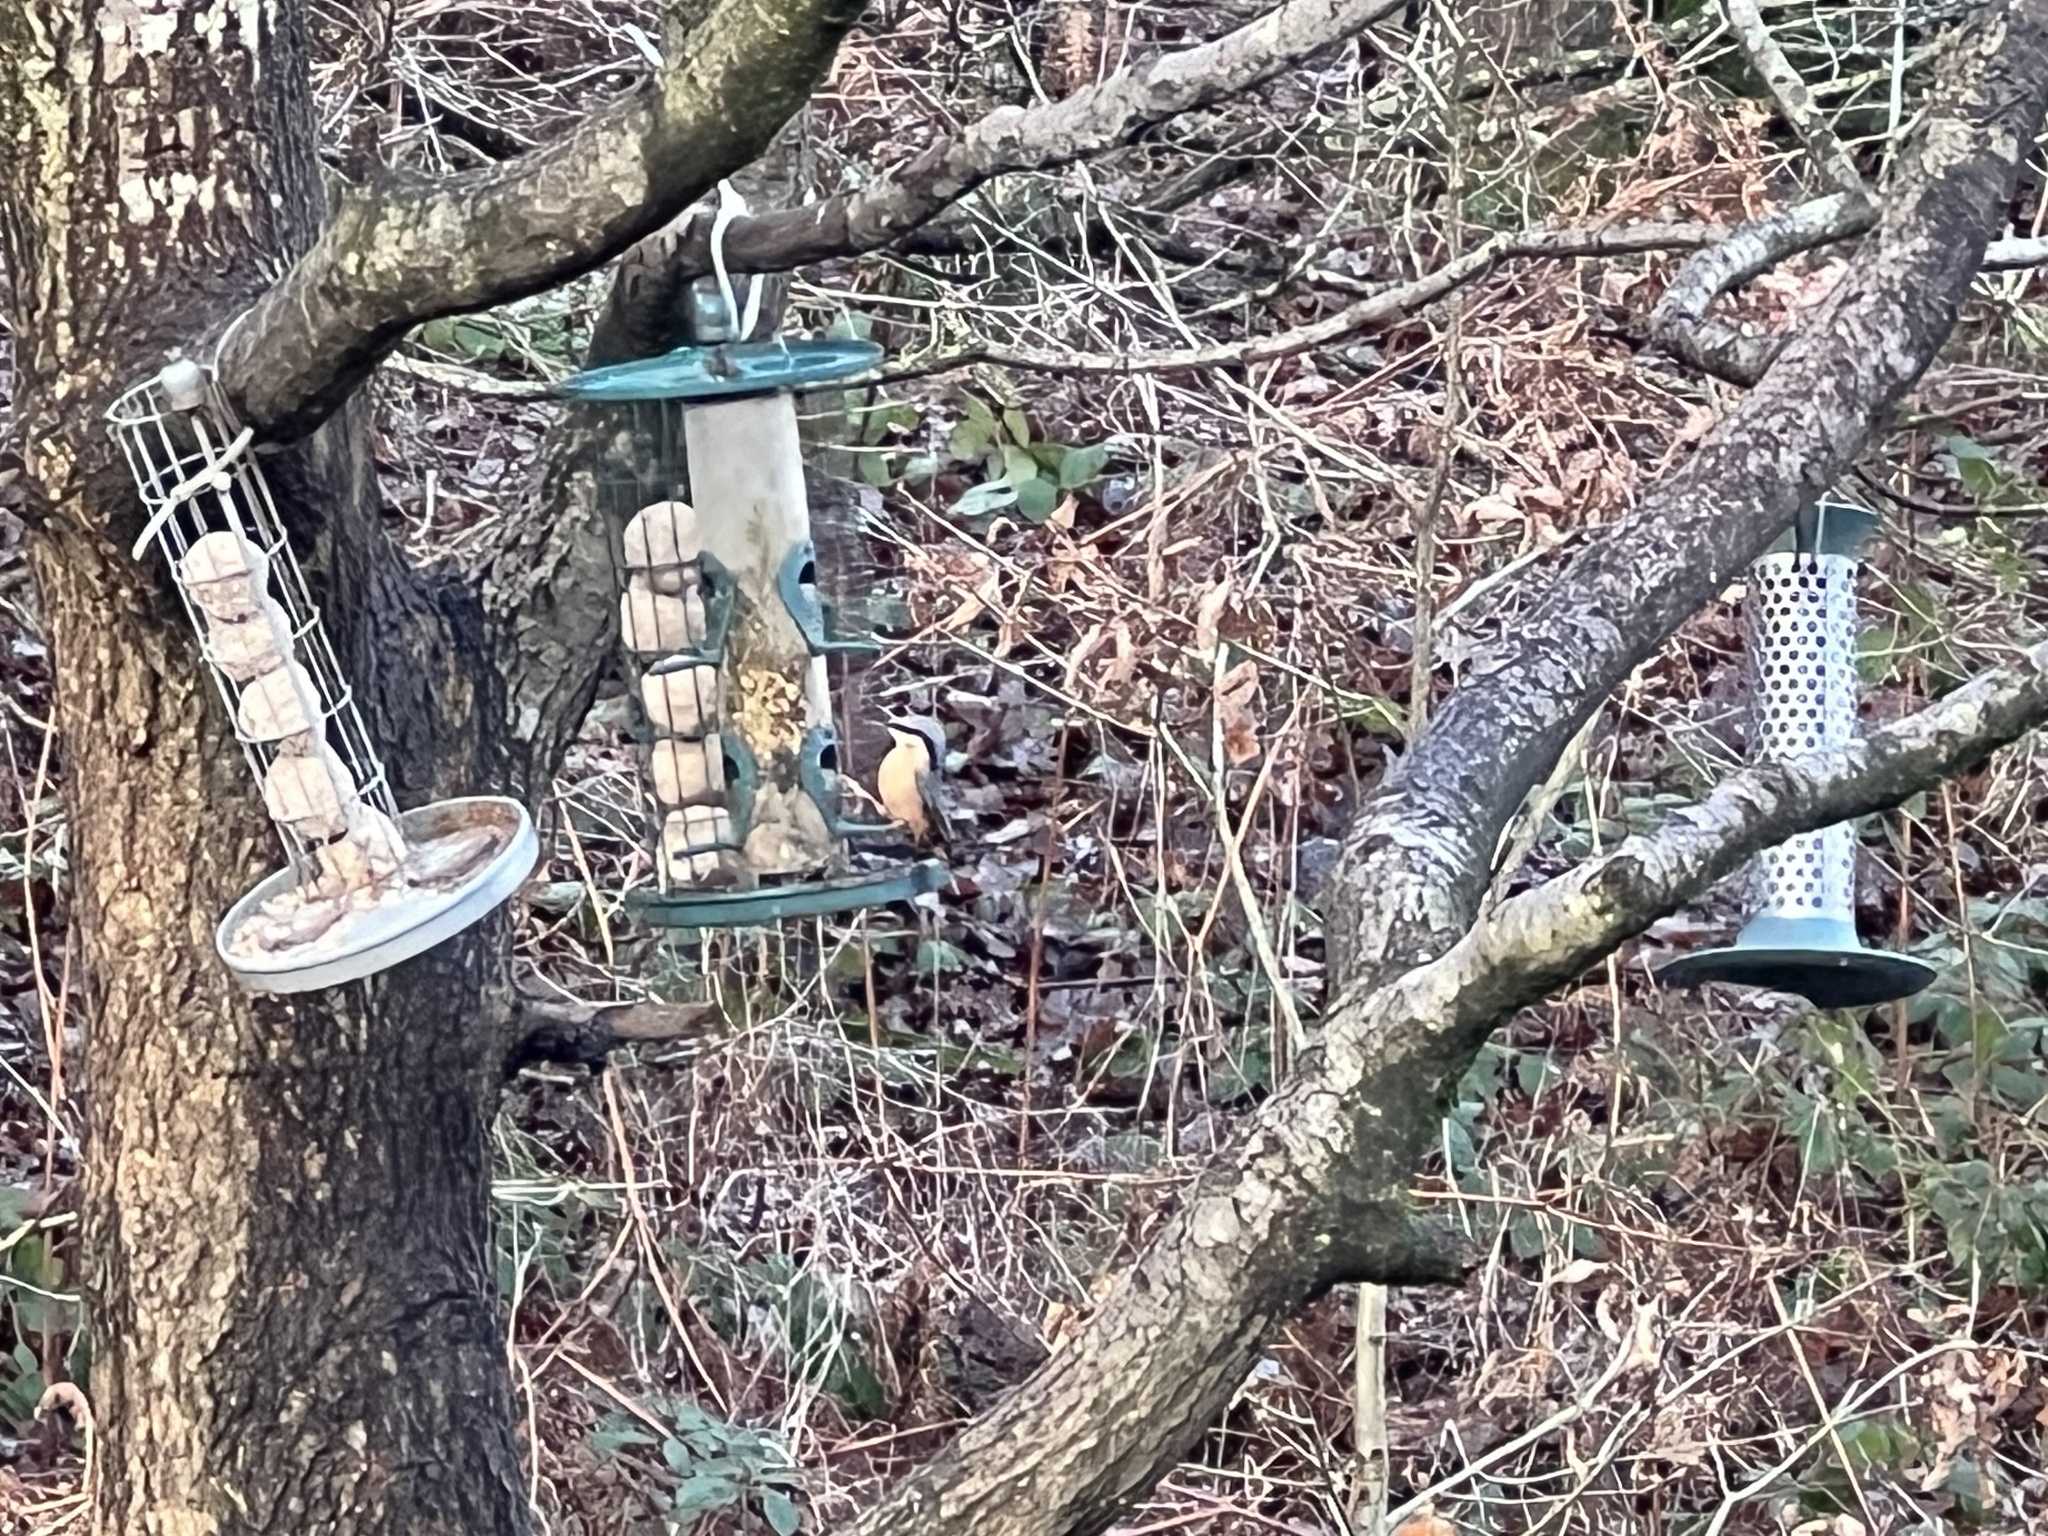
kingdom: Animalia
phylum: Chordata
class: Aves
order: Passeriformes
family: Sittidae
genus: Sitta
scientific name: Sitta europaea
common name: Eurasian nuthatch
